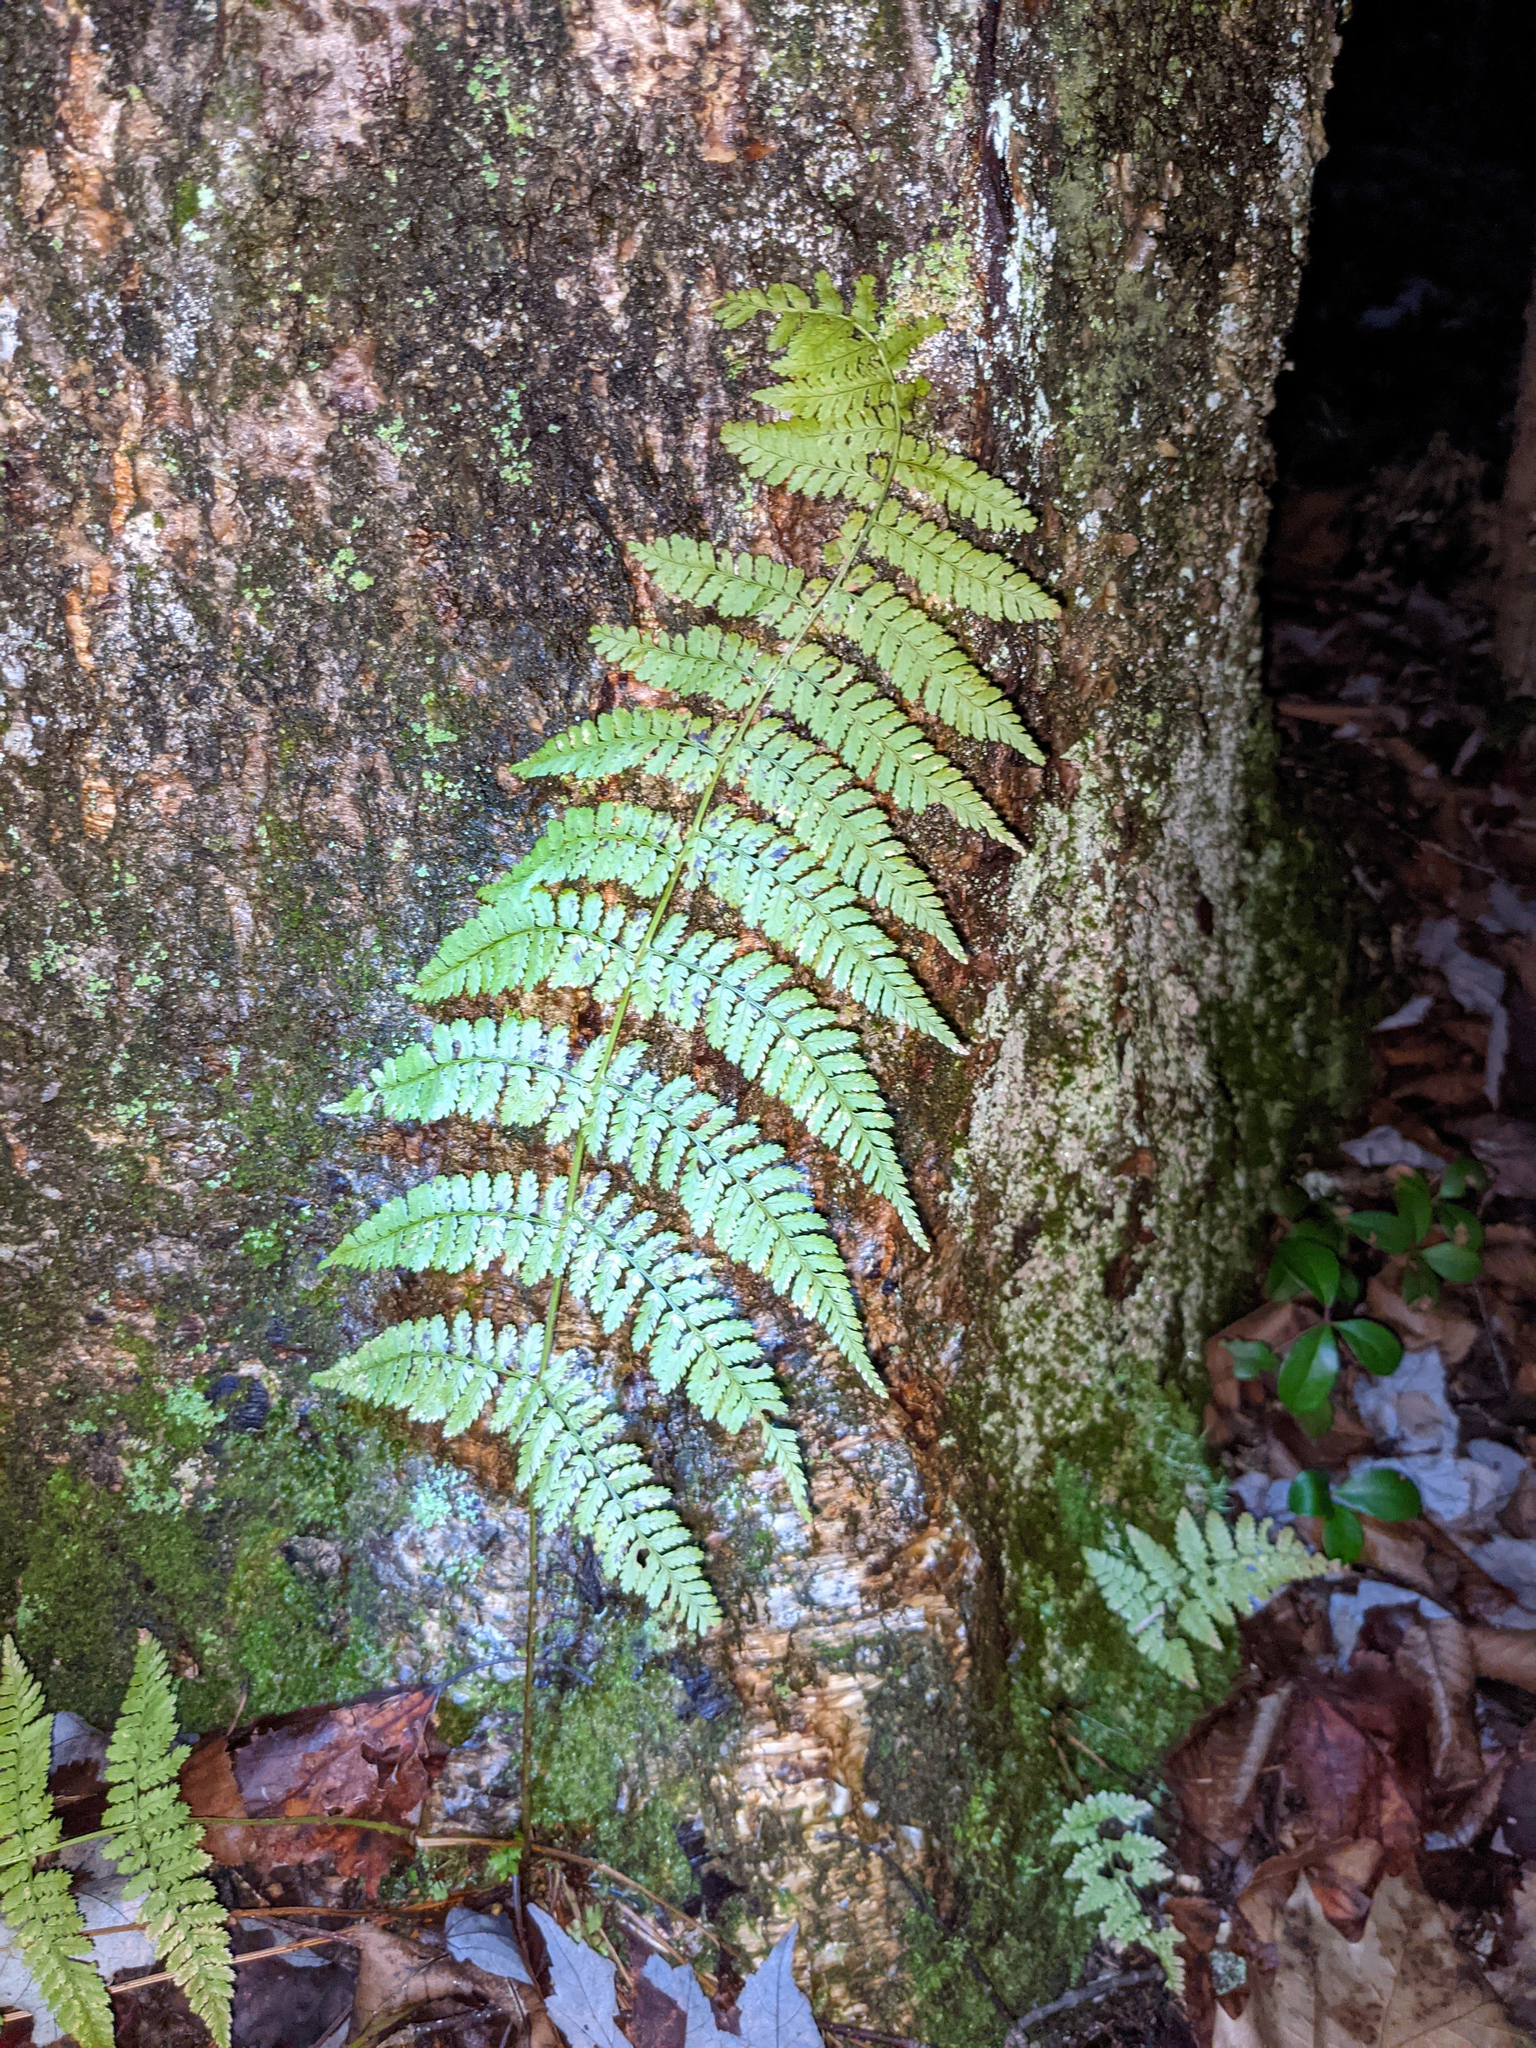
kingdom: Plantae
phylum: Tracheophyta
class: Polypodiopsida
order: Polypodiales
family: Dryopteridaceae
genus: Dryopteris
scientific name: Dryopteris intermedia
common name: Evergreen wood fern
